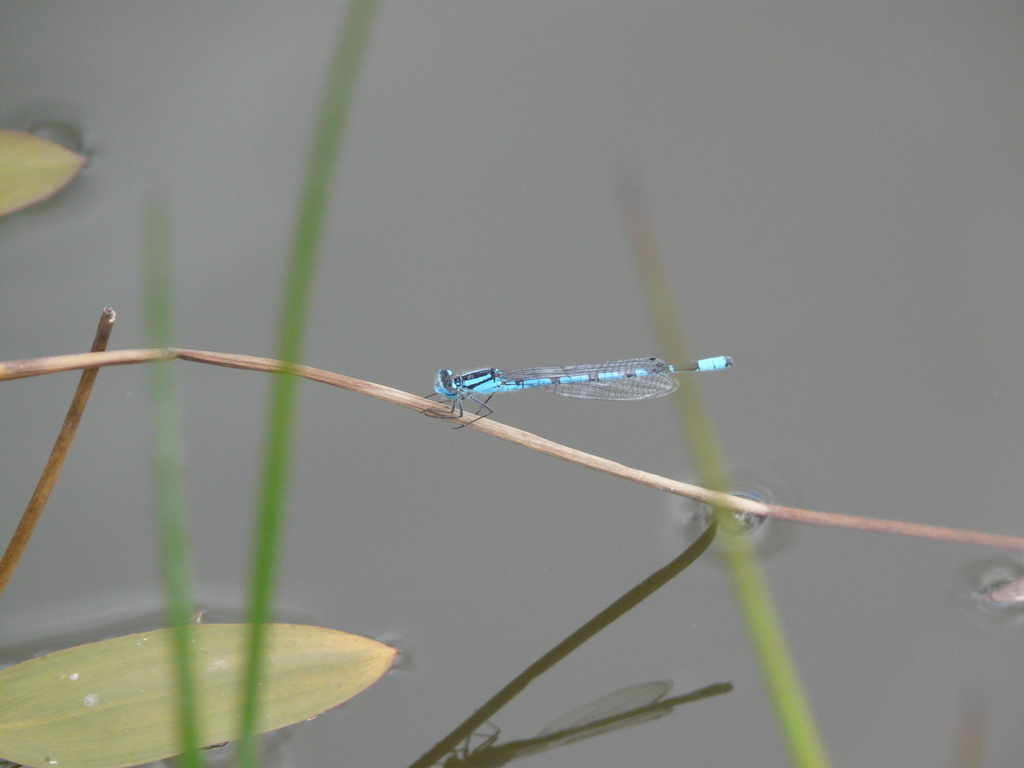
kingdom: Animalia
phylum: Arthropoda
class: Insecta
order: Odonata
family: Coenagrionidae
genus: Enallagma
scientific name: Enallagma cyathigerum
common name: Common blue damselfly
